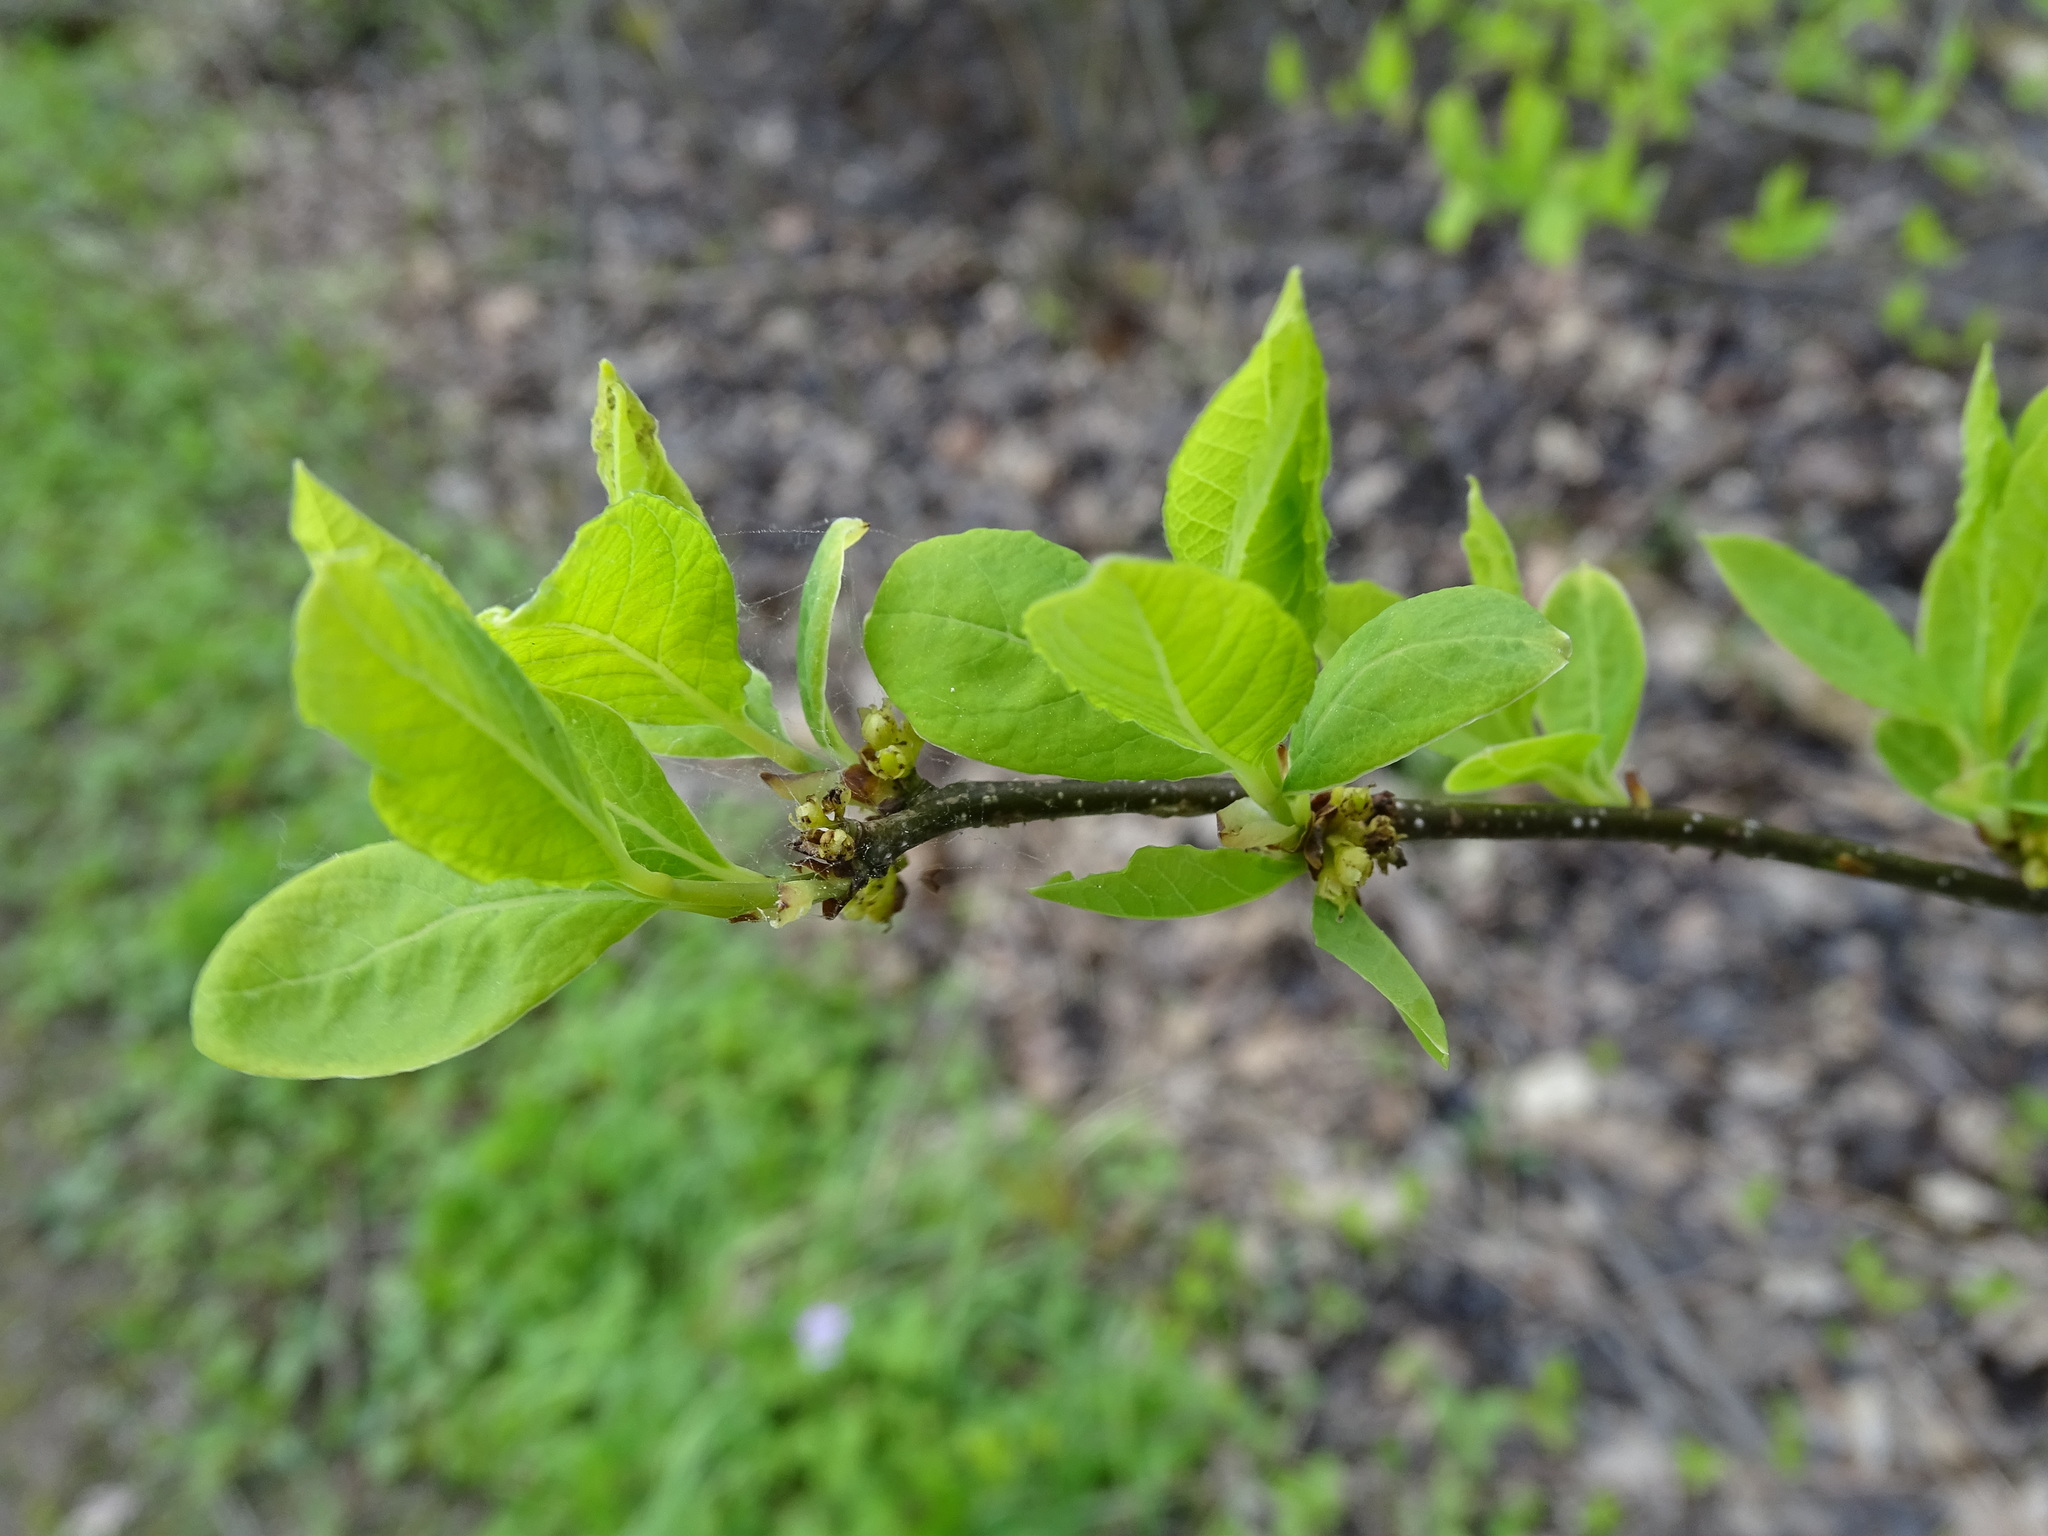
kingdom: Plantae
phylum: Tracheophyta
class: Magnoliopsida
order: Laurales
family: Lauraceae
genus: Lindera
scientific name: Lindera benzoin
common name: Spicebush
